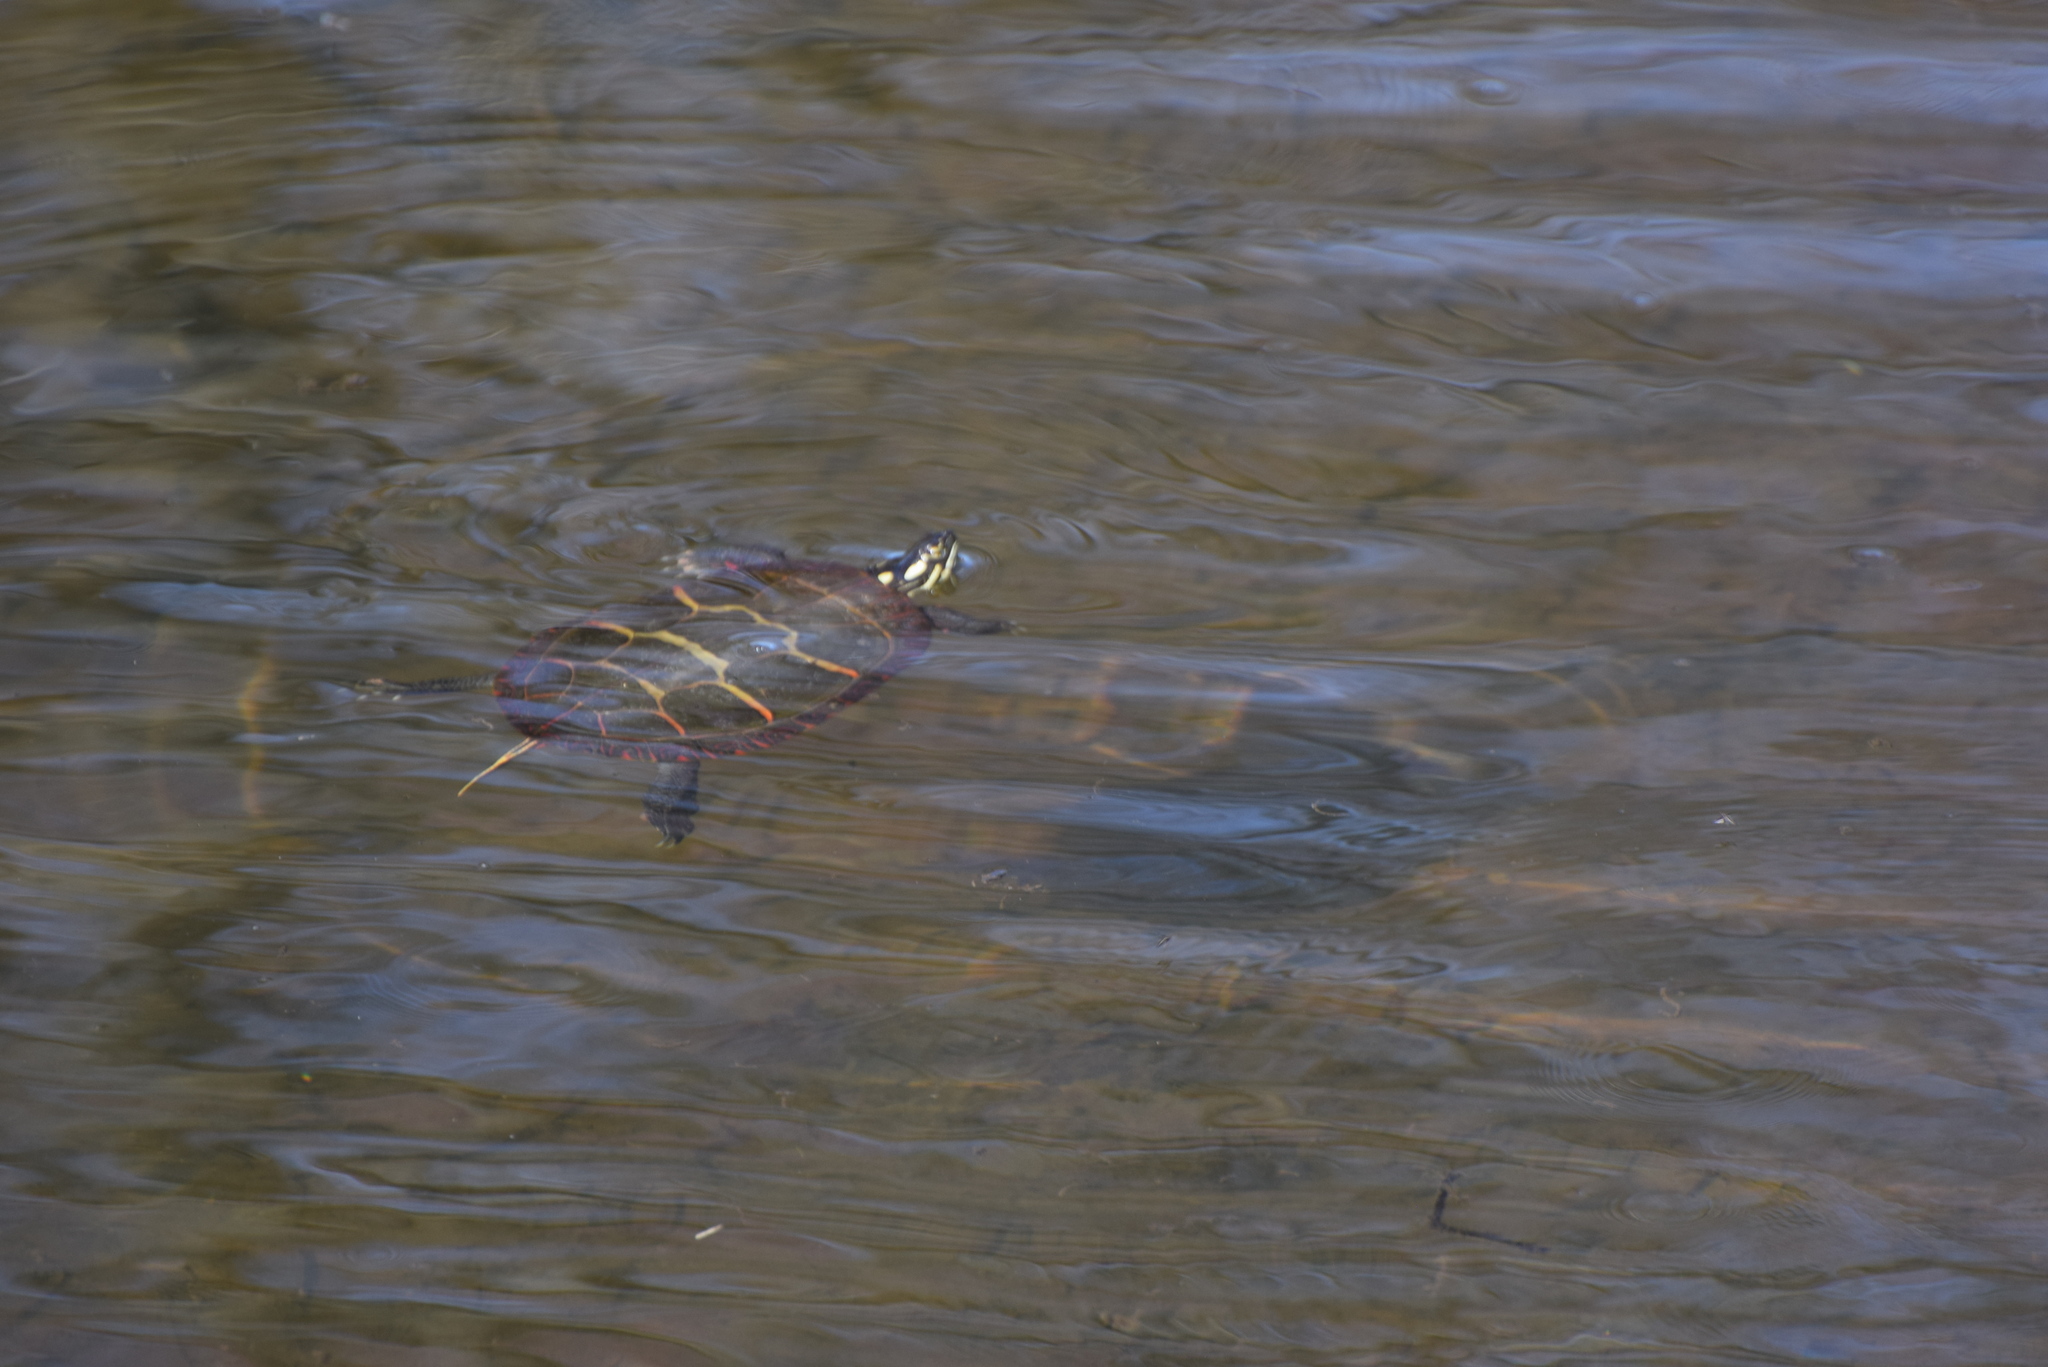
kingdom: Animalia
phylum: Chordata
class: Testudines
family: Emydidae
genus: Chrysemys
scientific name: Chrysemys picta
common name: Painted turtle
